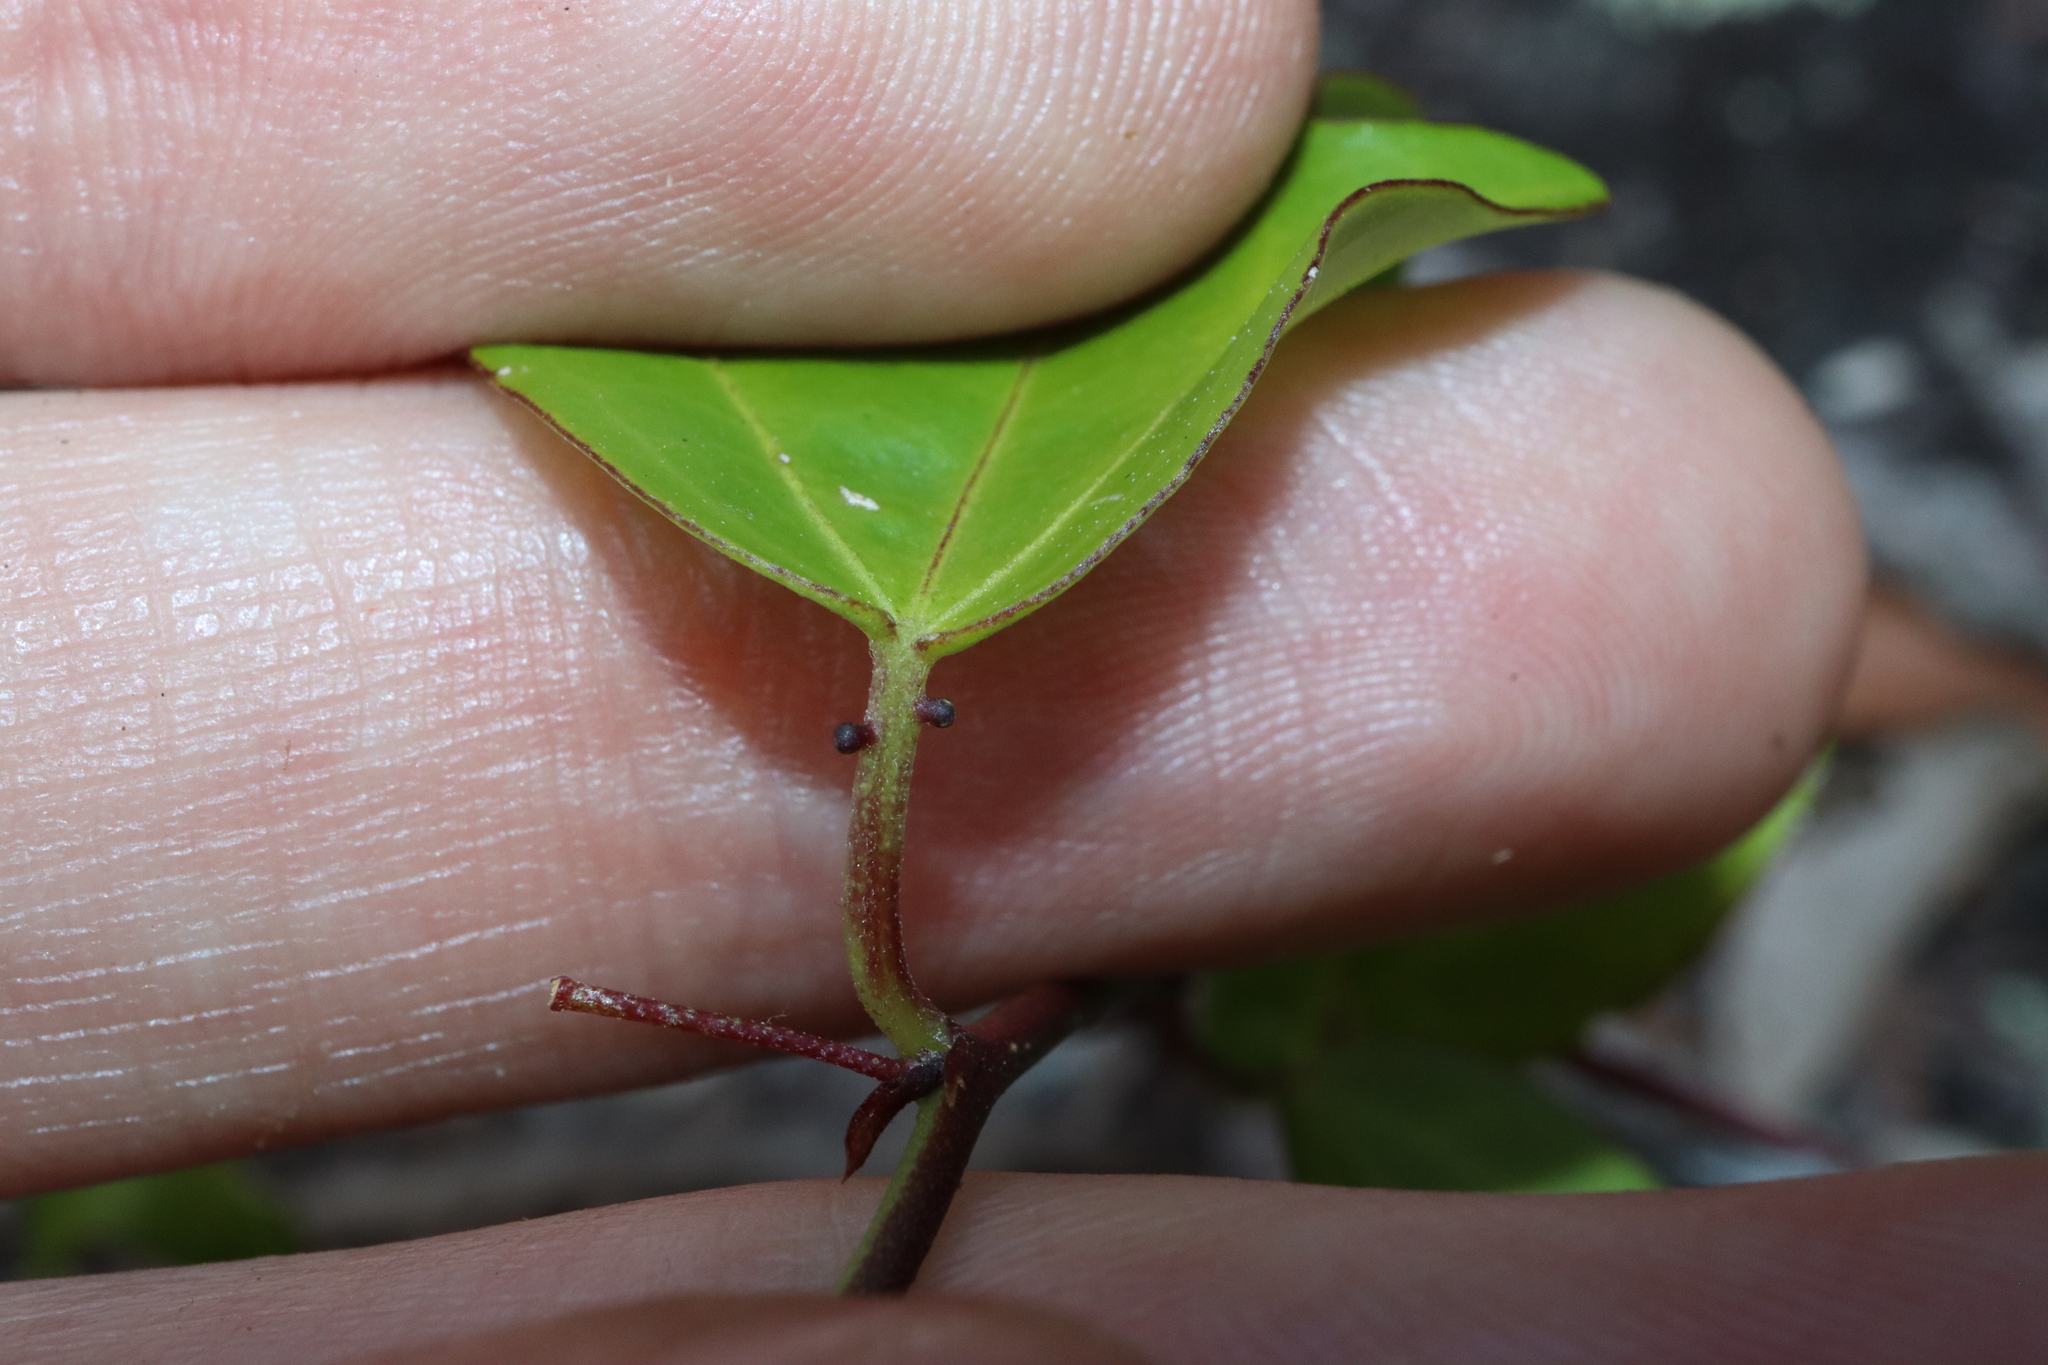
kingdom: Plantae
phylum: Tracheophyta
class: Magnoliopsida
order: Malpighiales
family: Passifloraceae
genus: Passiflora
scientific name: Passiflora pallida
